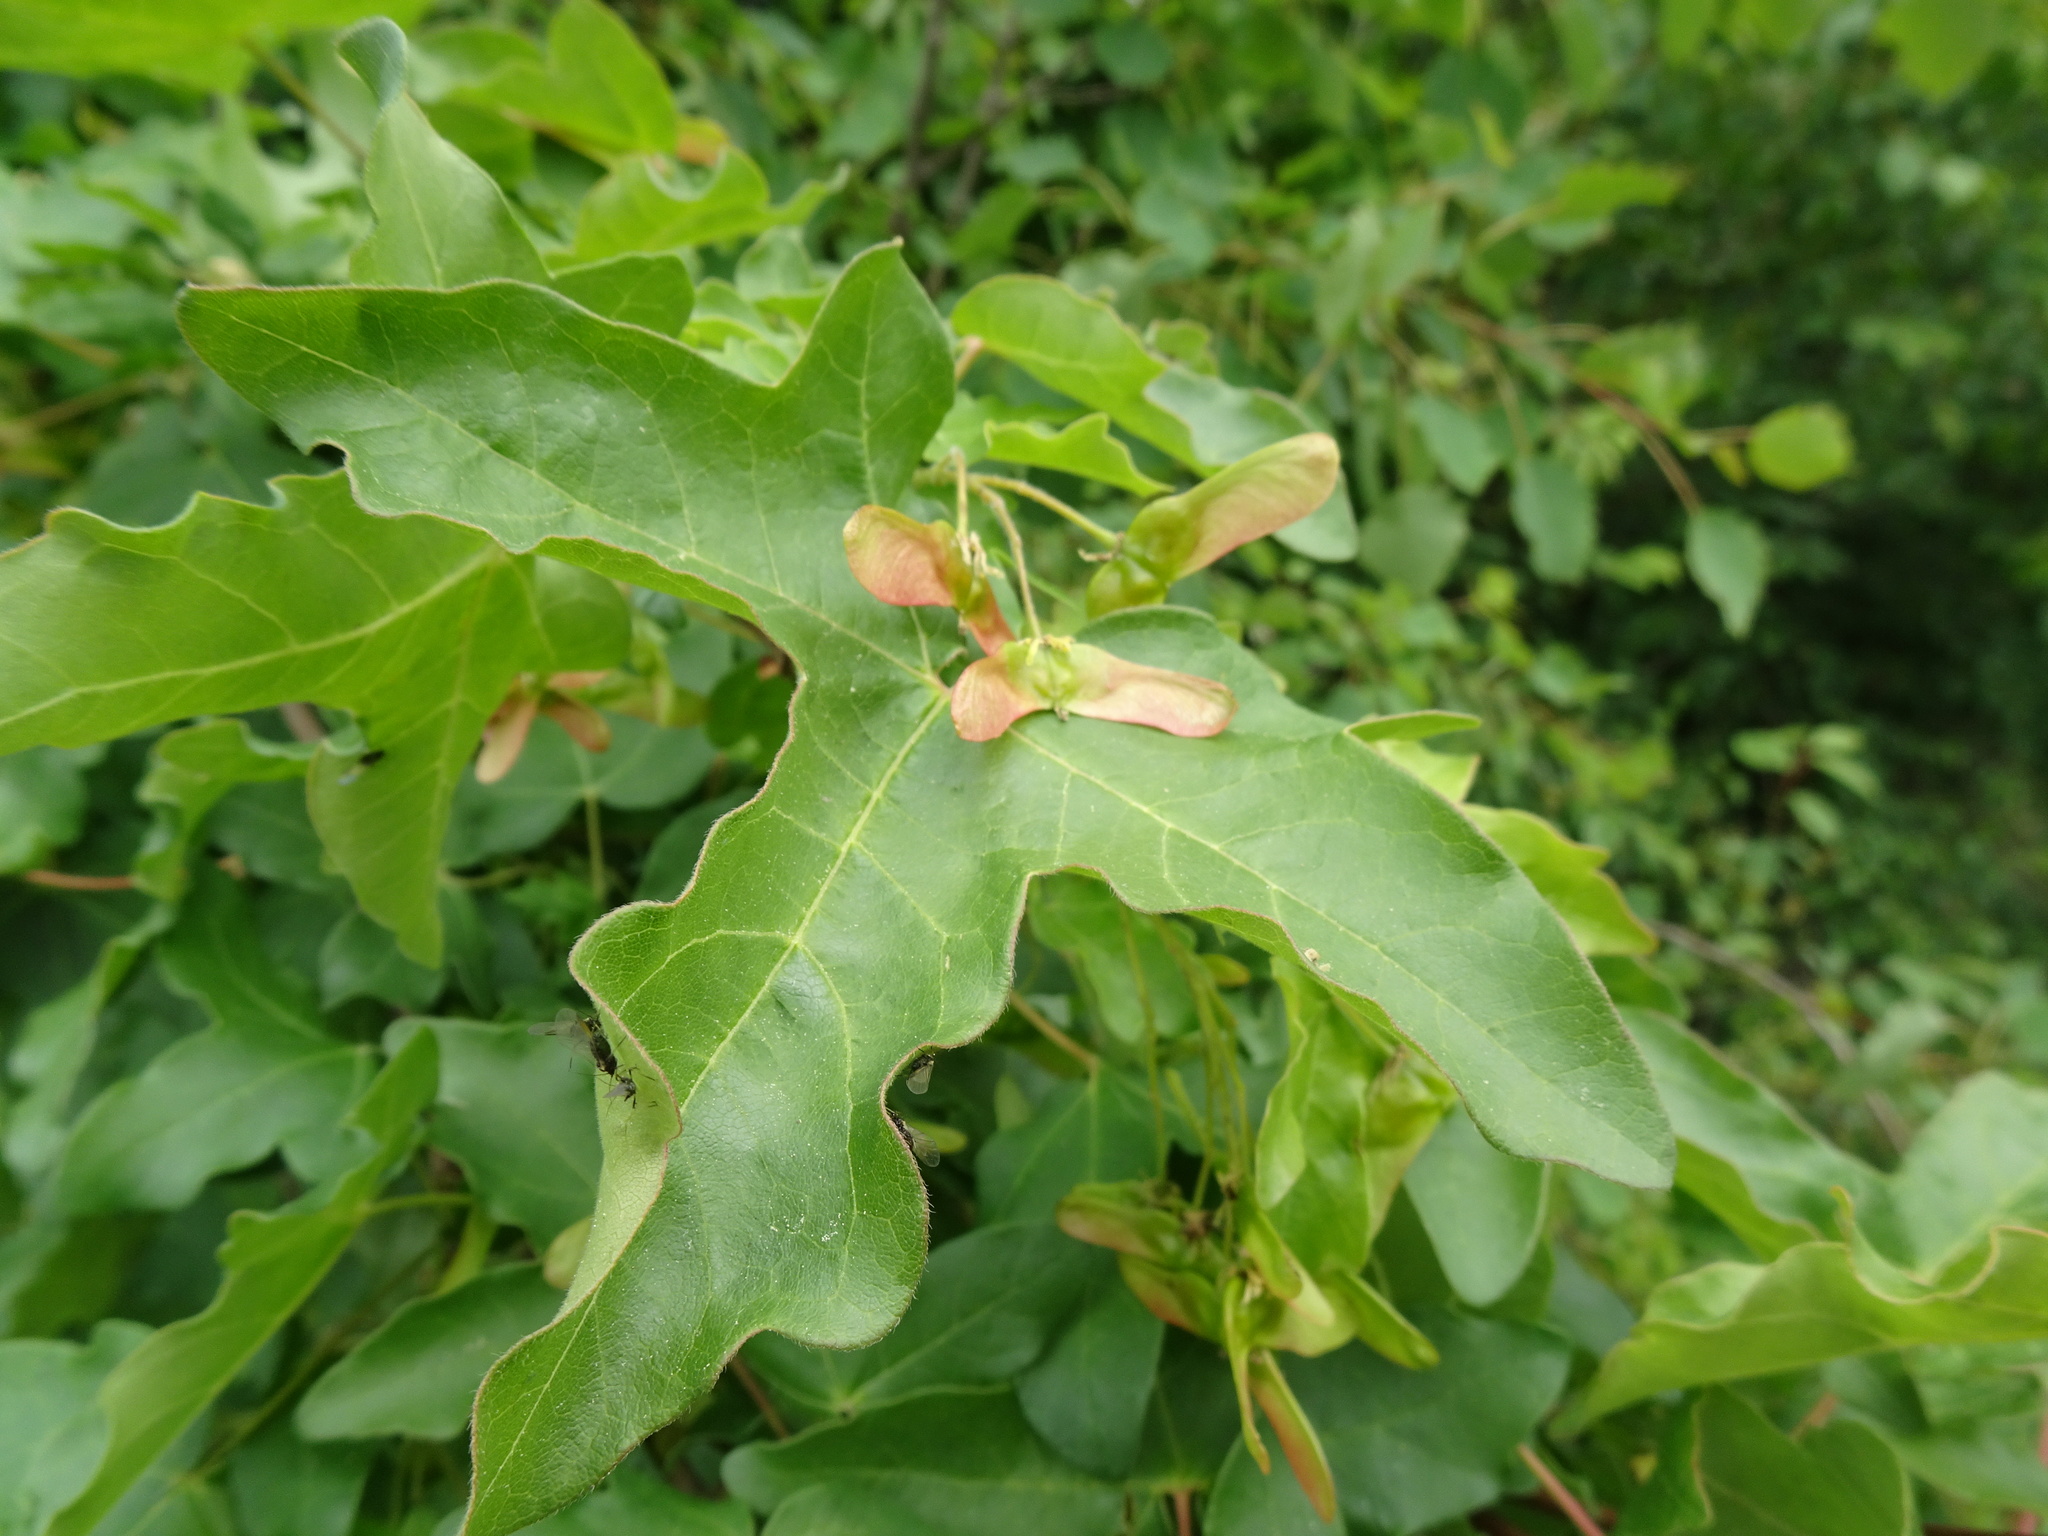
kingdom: Plantae
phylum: Tracheophyta
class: Magnoliopsida
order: Sapindales
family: Sapindaceae
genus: Acer
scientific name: Acer campestre
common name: Field maple
